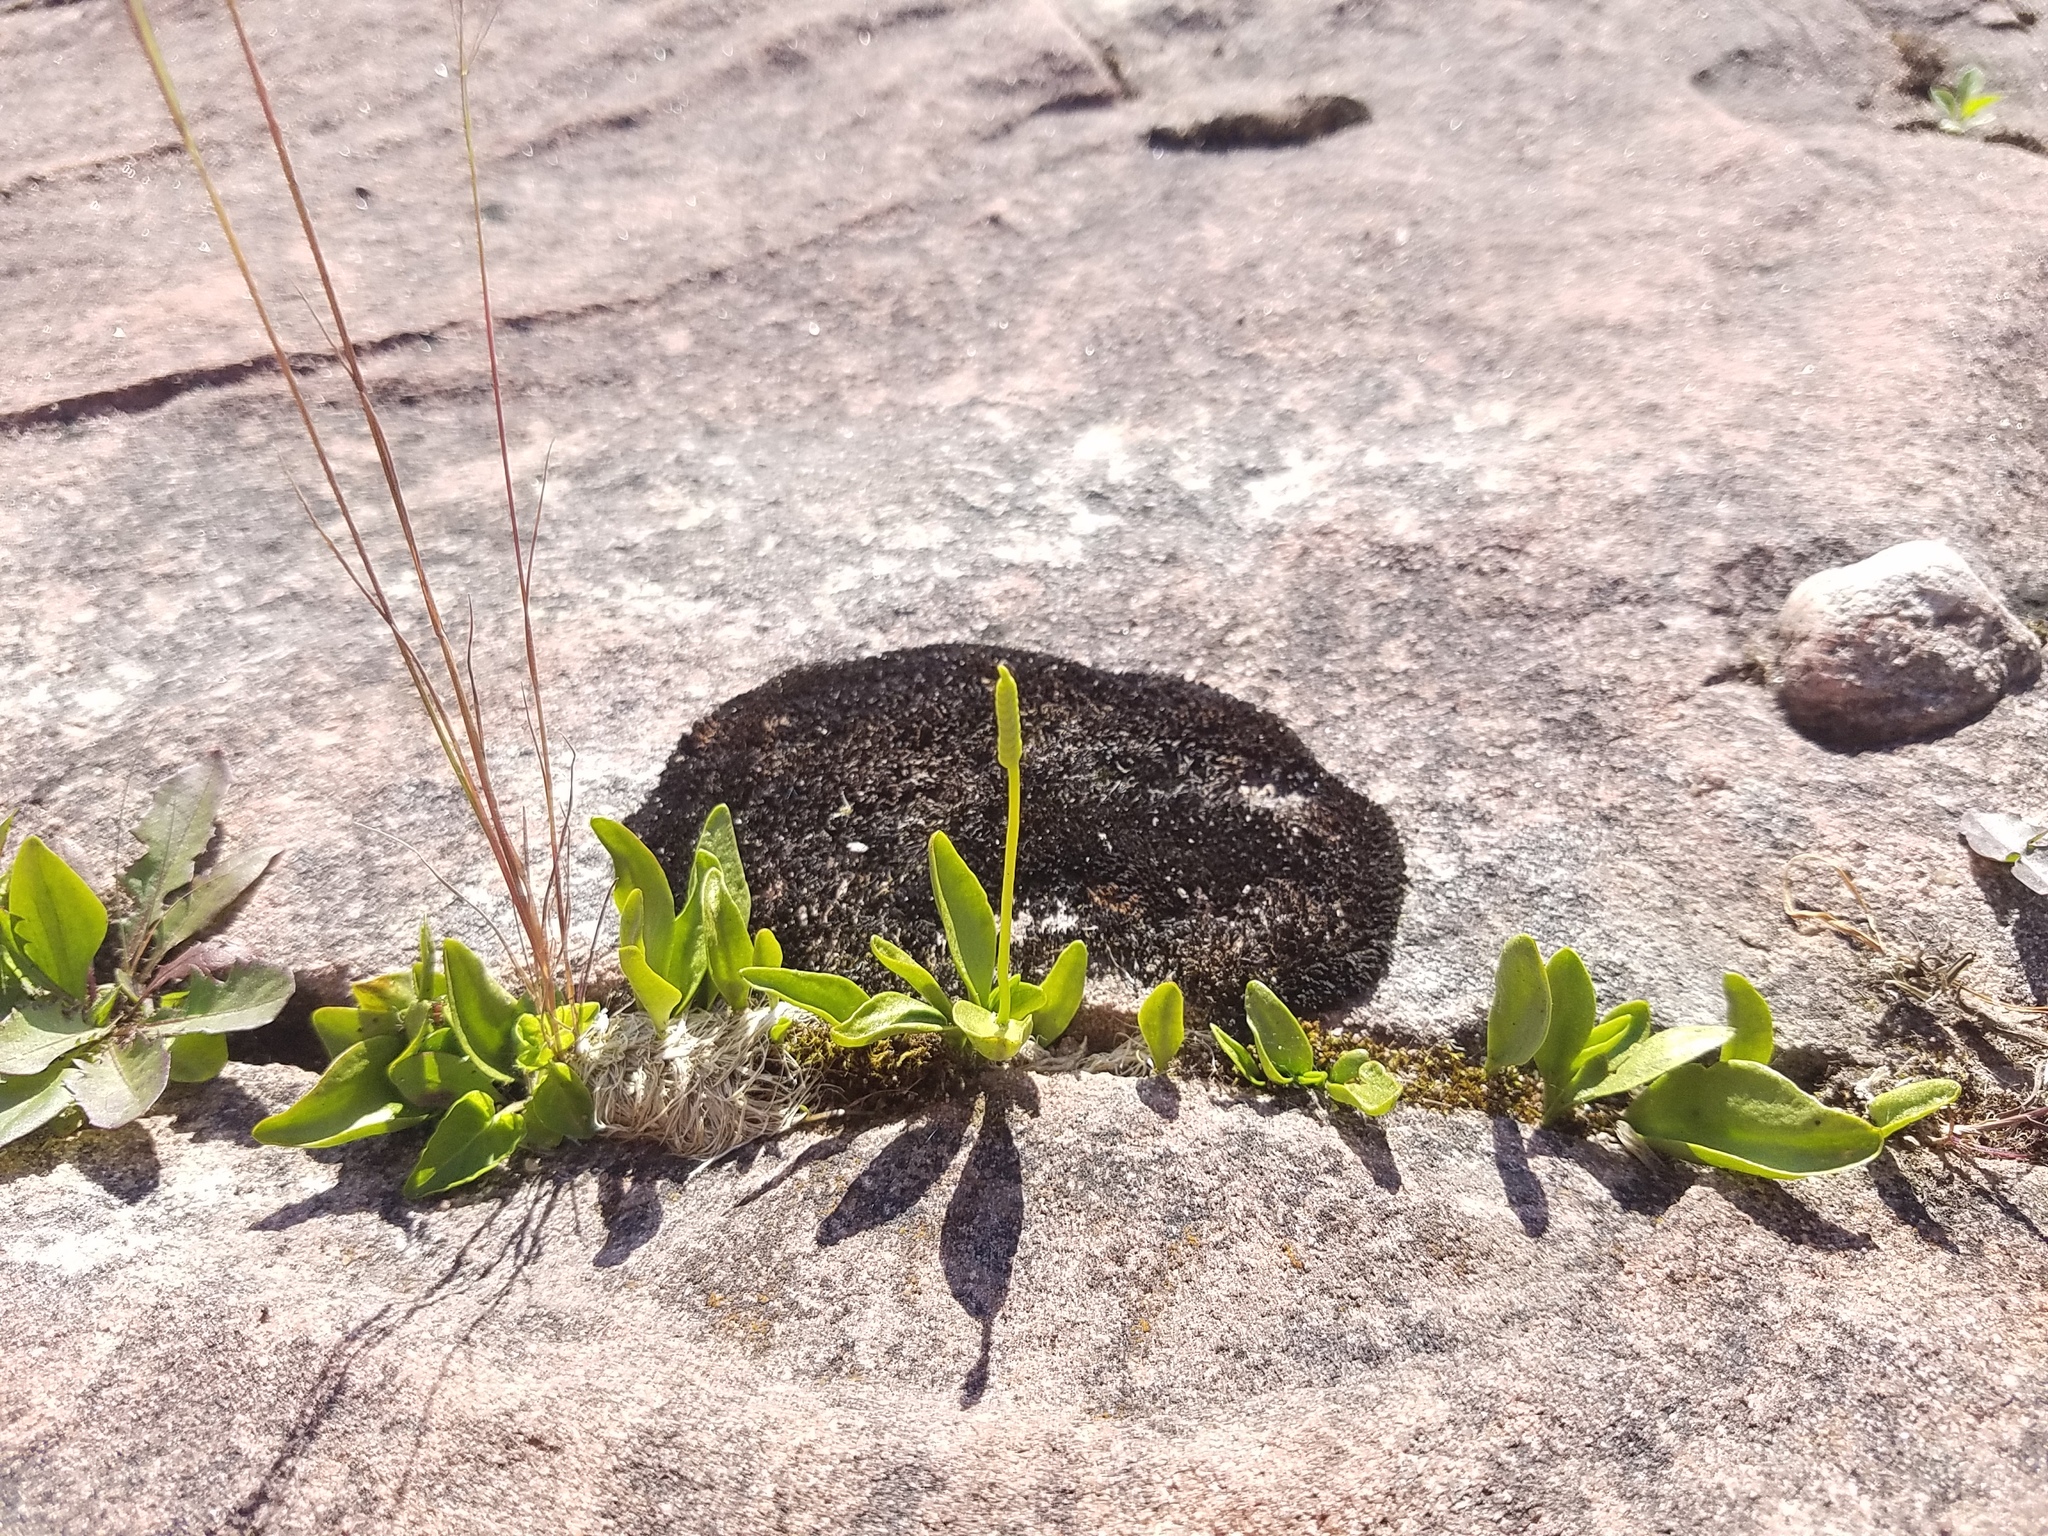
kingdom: Plantae
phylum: Tracheophyta
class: Polypodiopsida
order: Ophioglossales
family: Ophioglossaceae
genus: Ophioglossum
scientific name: Ophioglossum pusillum
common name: Northern adder's-tongue
